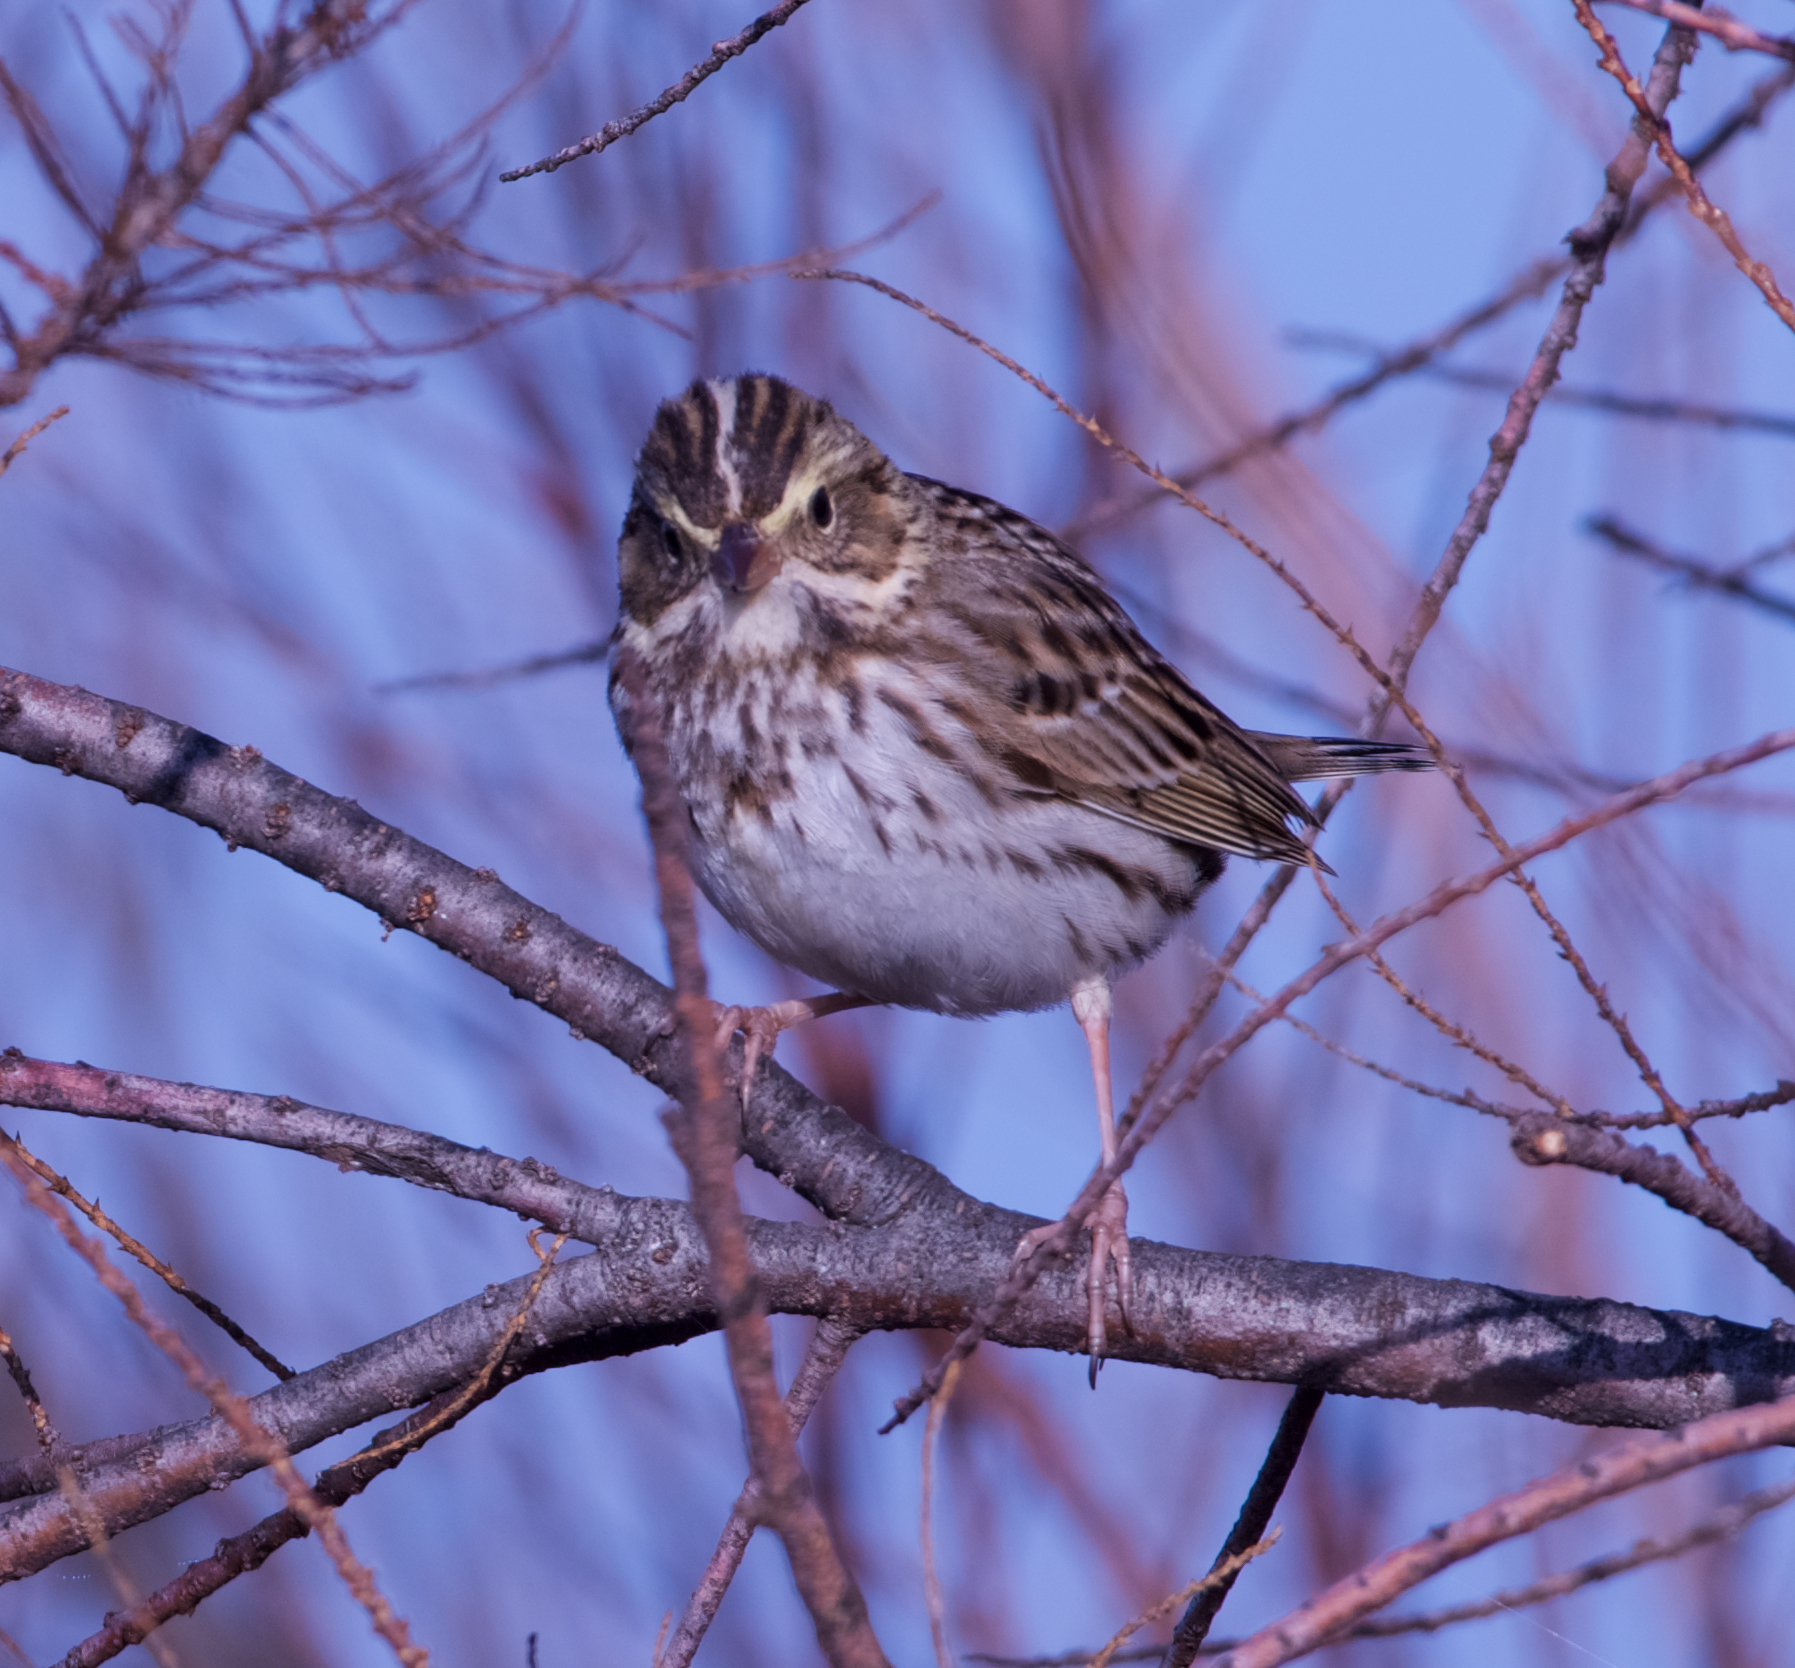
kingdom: Animalia
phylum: Chordata
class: Aves
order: Passeriformes
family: Passerellidae
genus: Passerculus
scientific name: Passerculus sandwichensis
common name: Savannah sparrow
